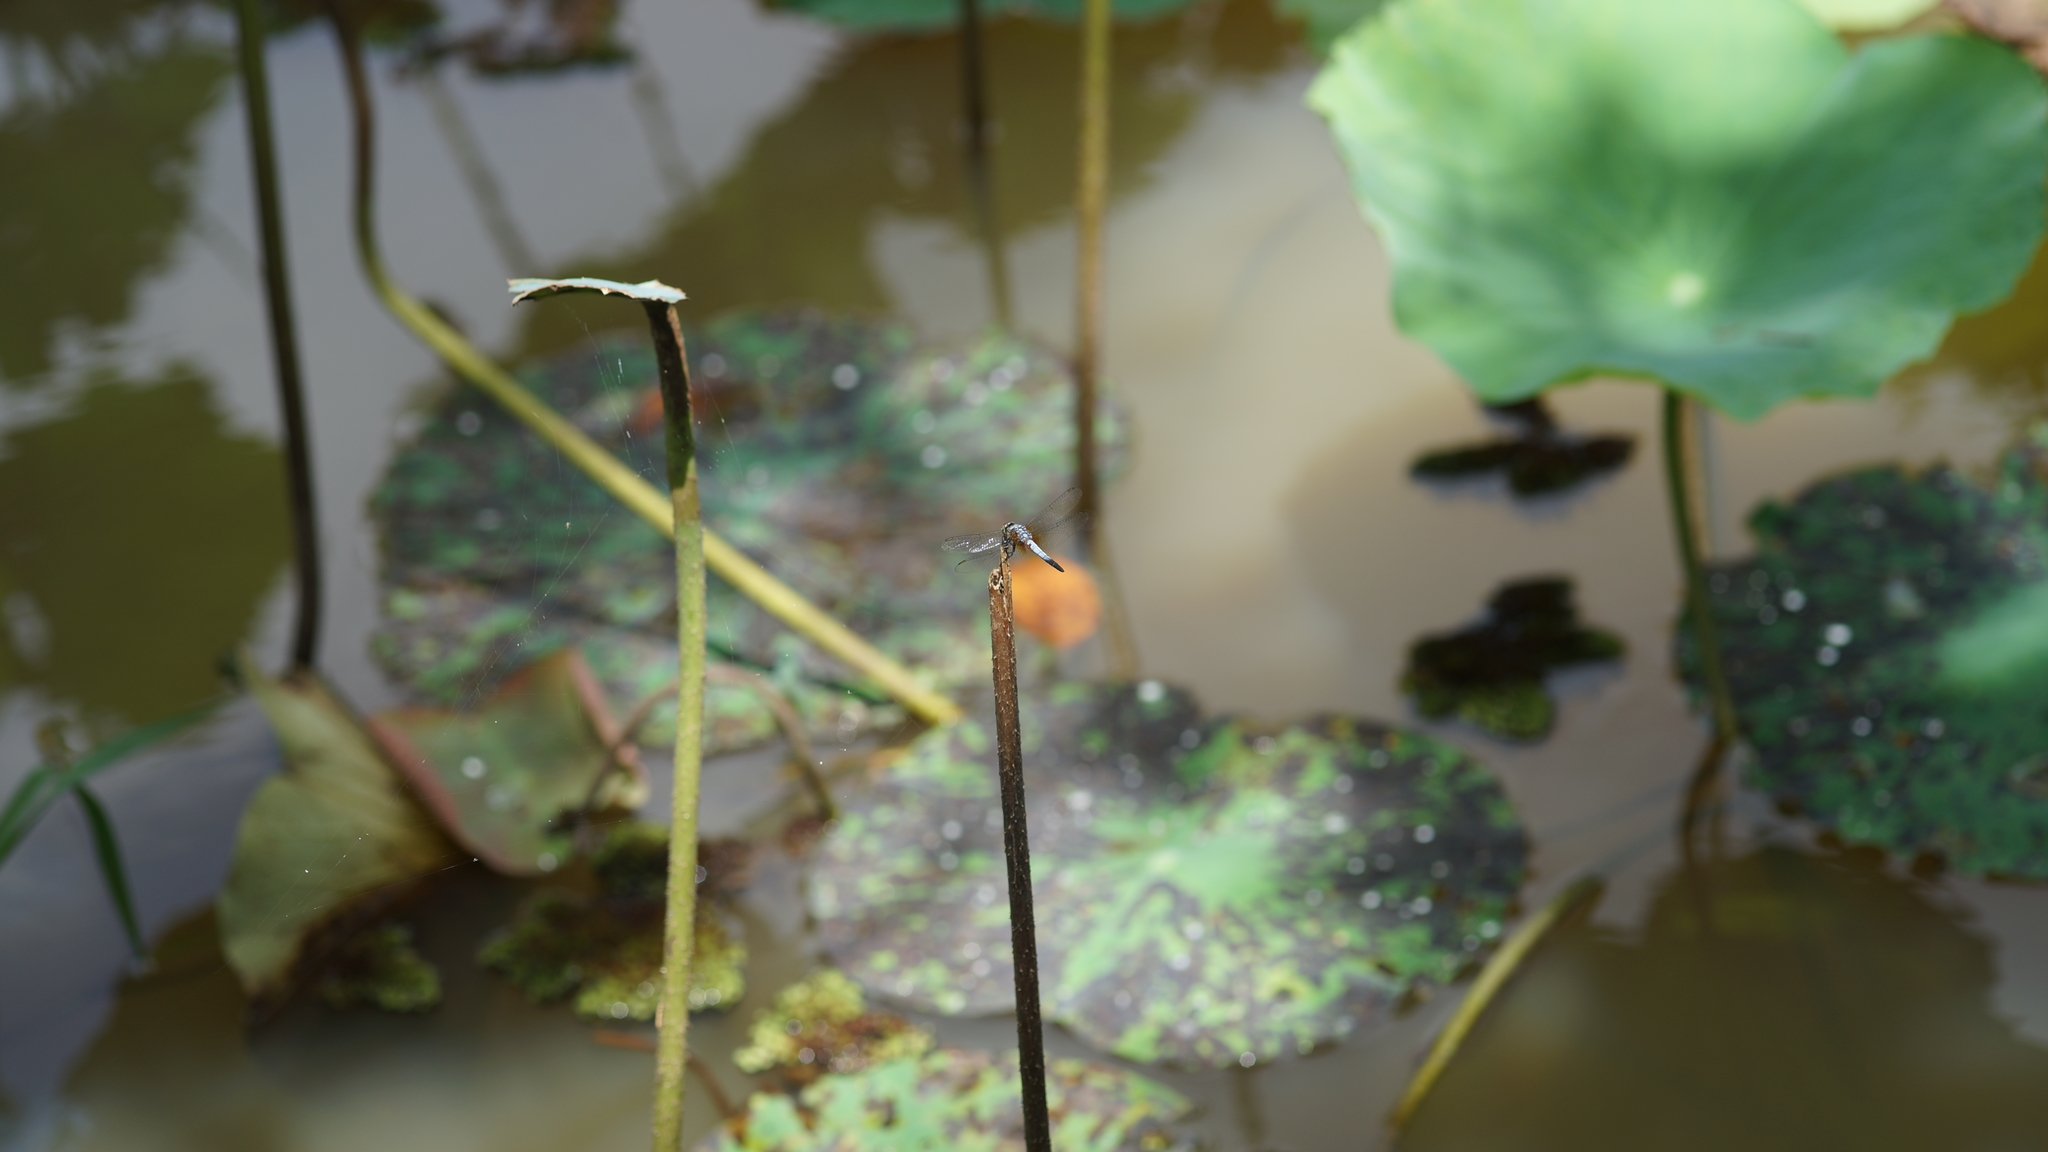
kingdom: Animalia
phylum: Arthropoda
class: Insecta
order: Odonata
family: Libellulidae
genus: Brachydiplax
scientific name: Brachydiplax chalybea
